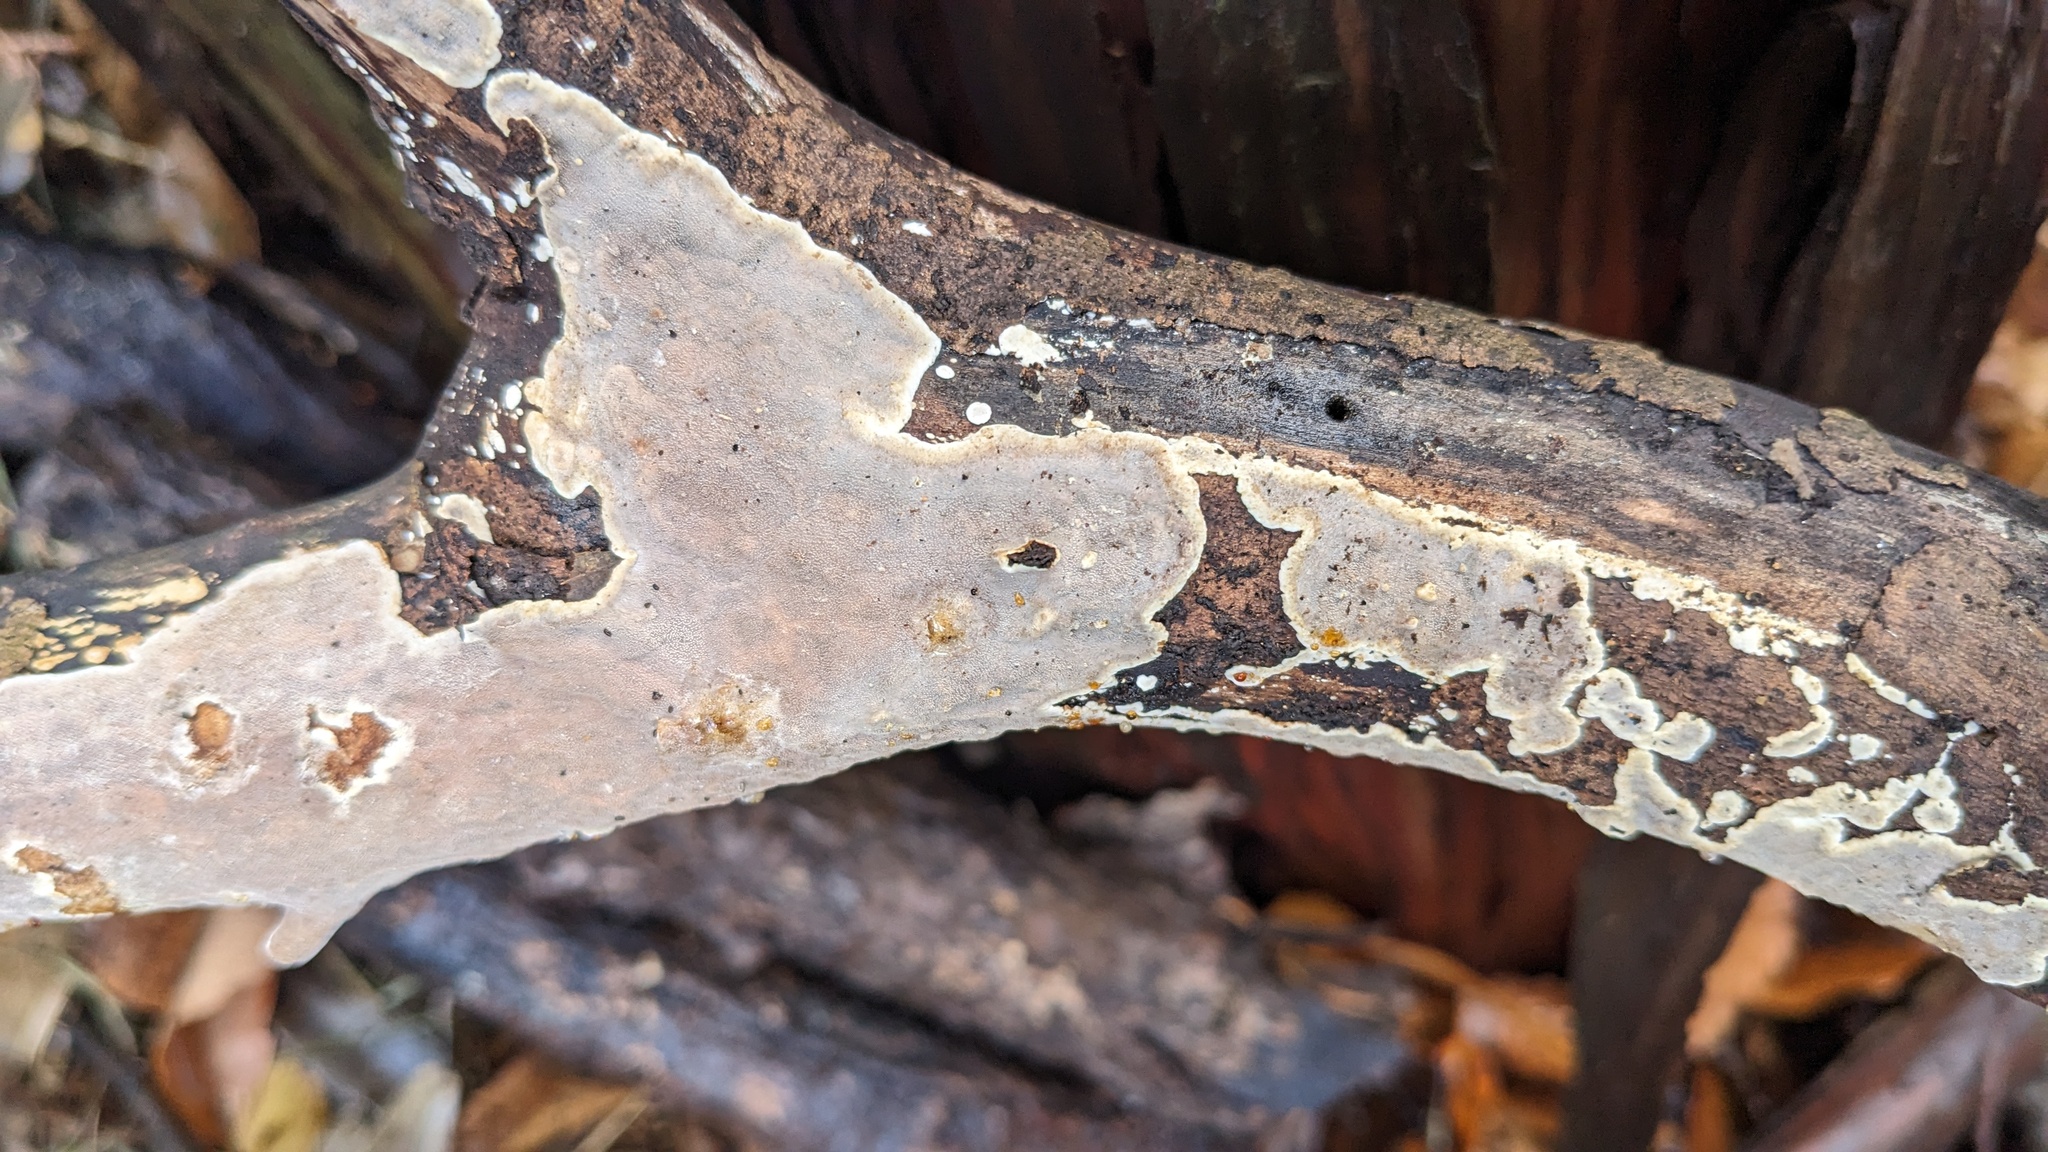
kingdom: Fungi
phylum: Basidiomycota
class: Agaricomycetes
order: Auriculariales
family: Auriculariaceae
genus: Heterochaete
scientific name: Heterochaete delicata
